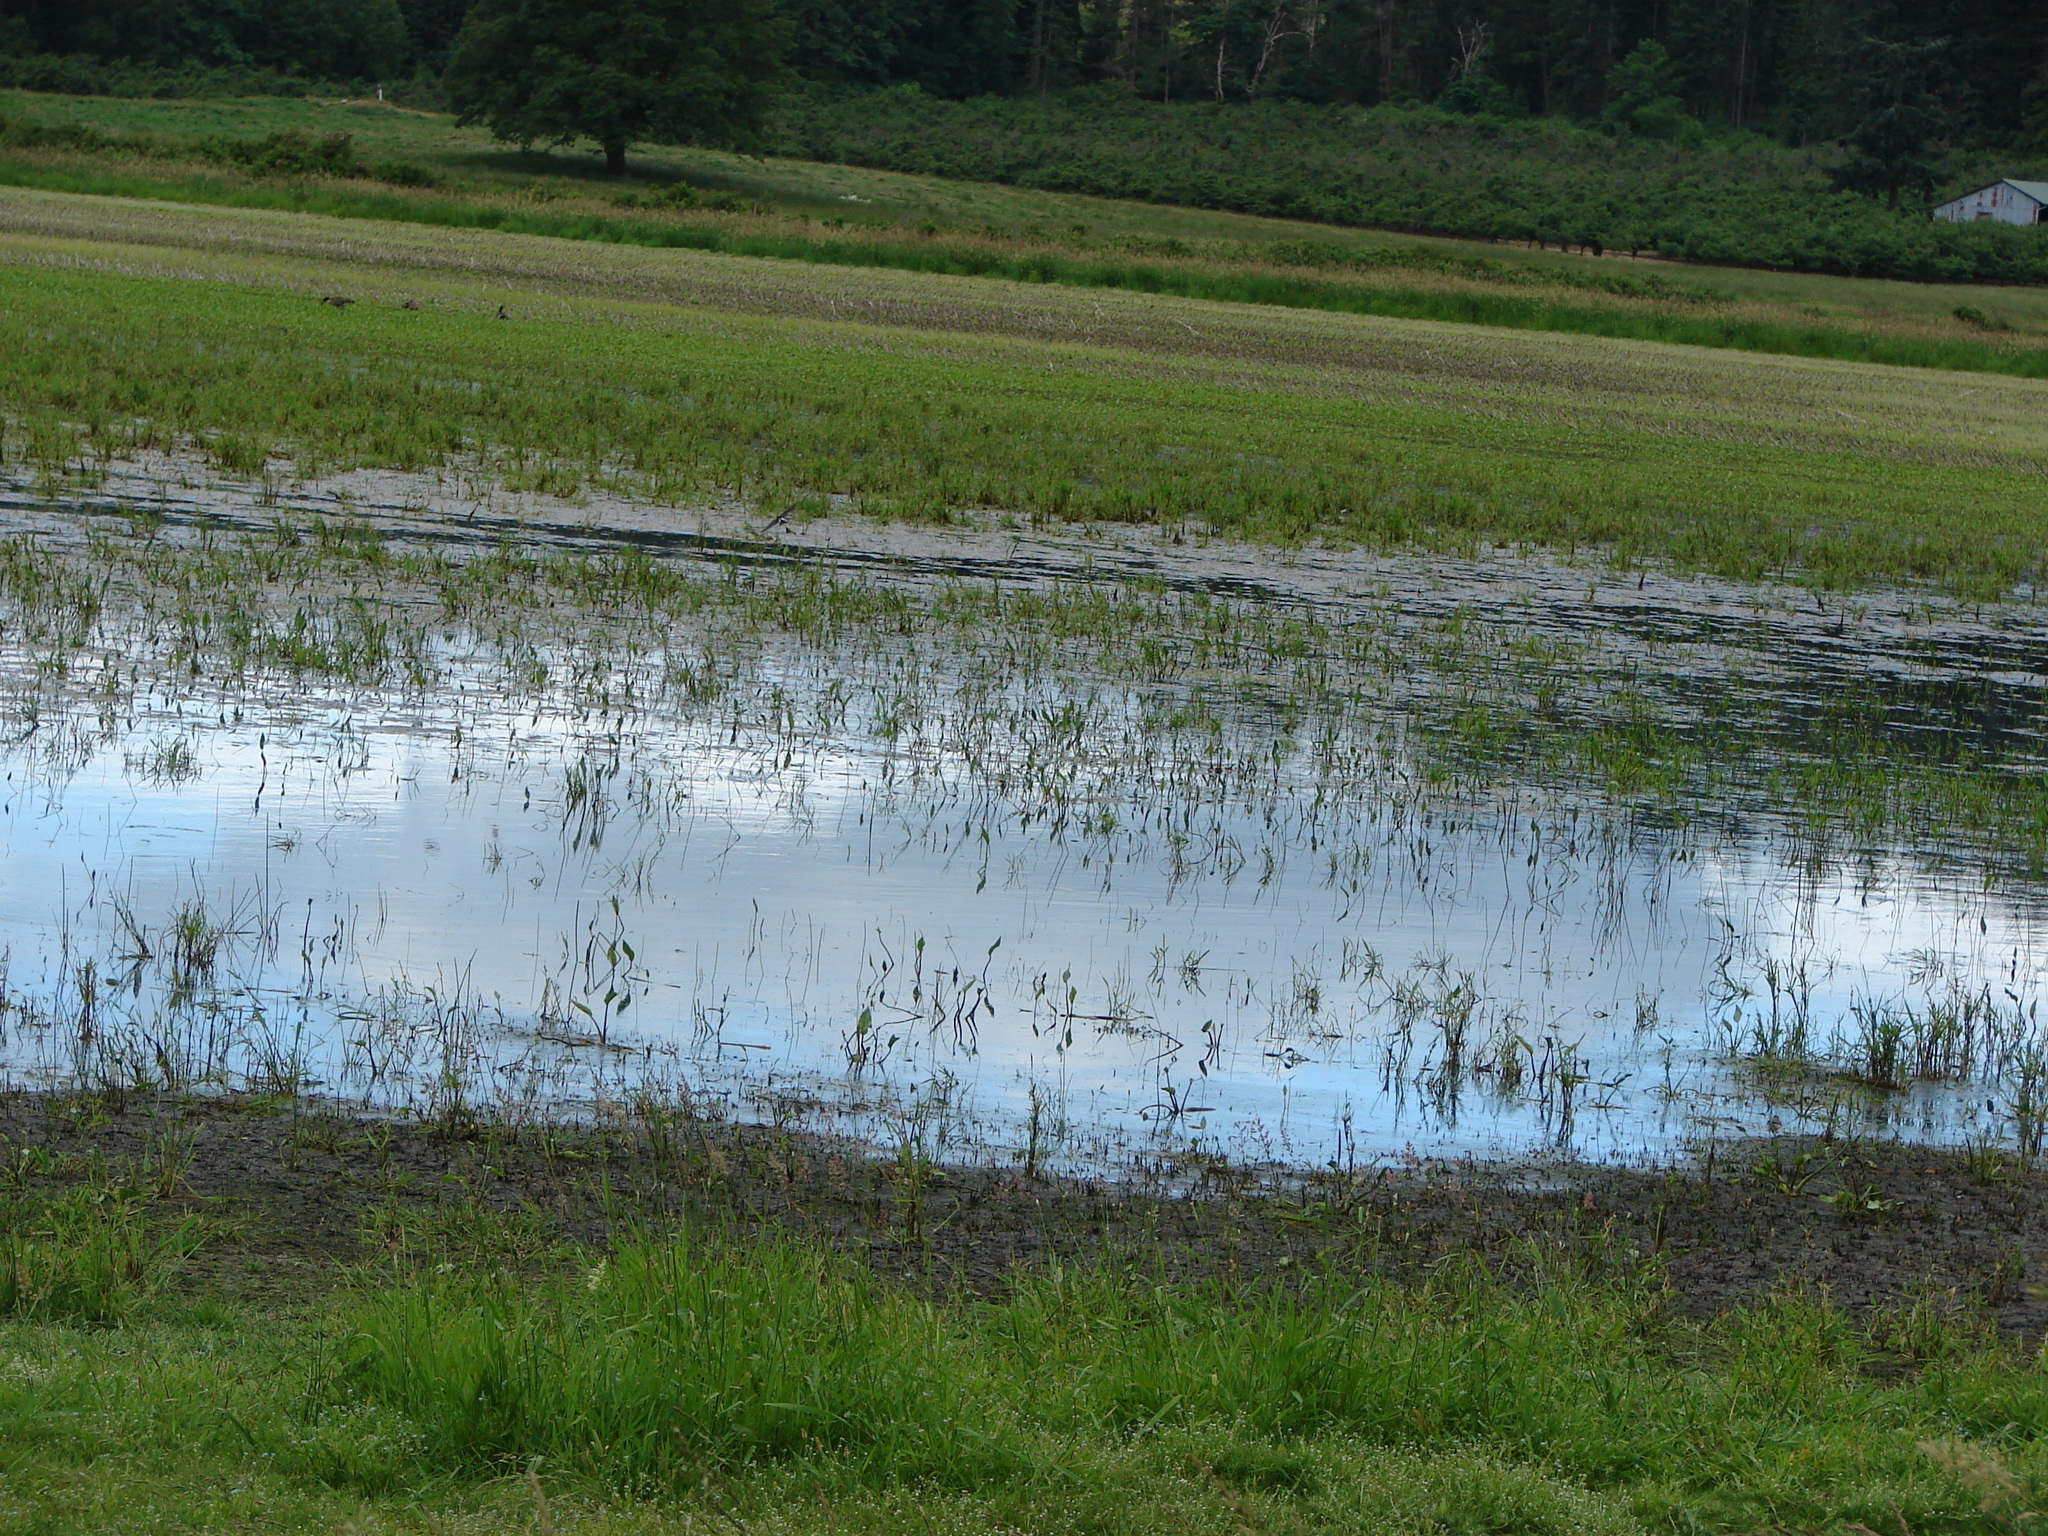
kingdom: Animalia
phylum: Chordata
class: Aves
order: Passeriformes
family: Hirundinidae
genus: Tachycineta
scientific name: Tachycineta thalassina
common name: Violet-green swallow
